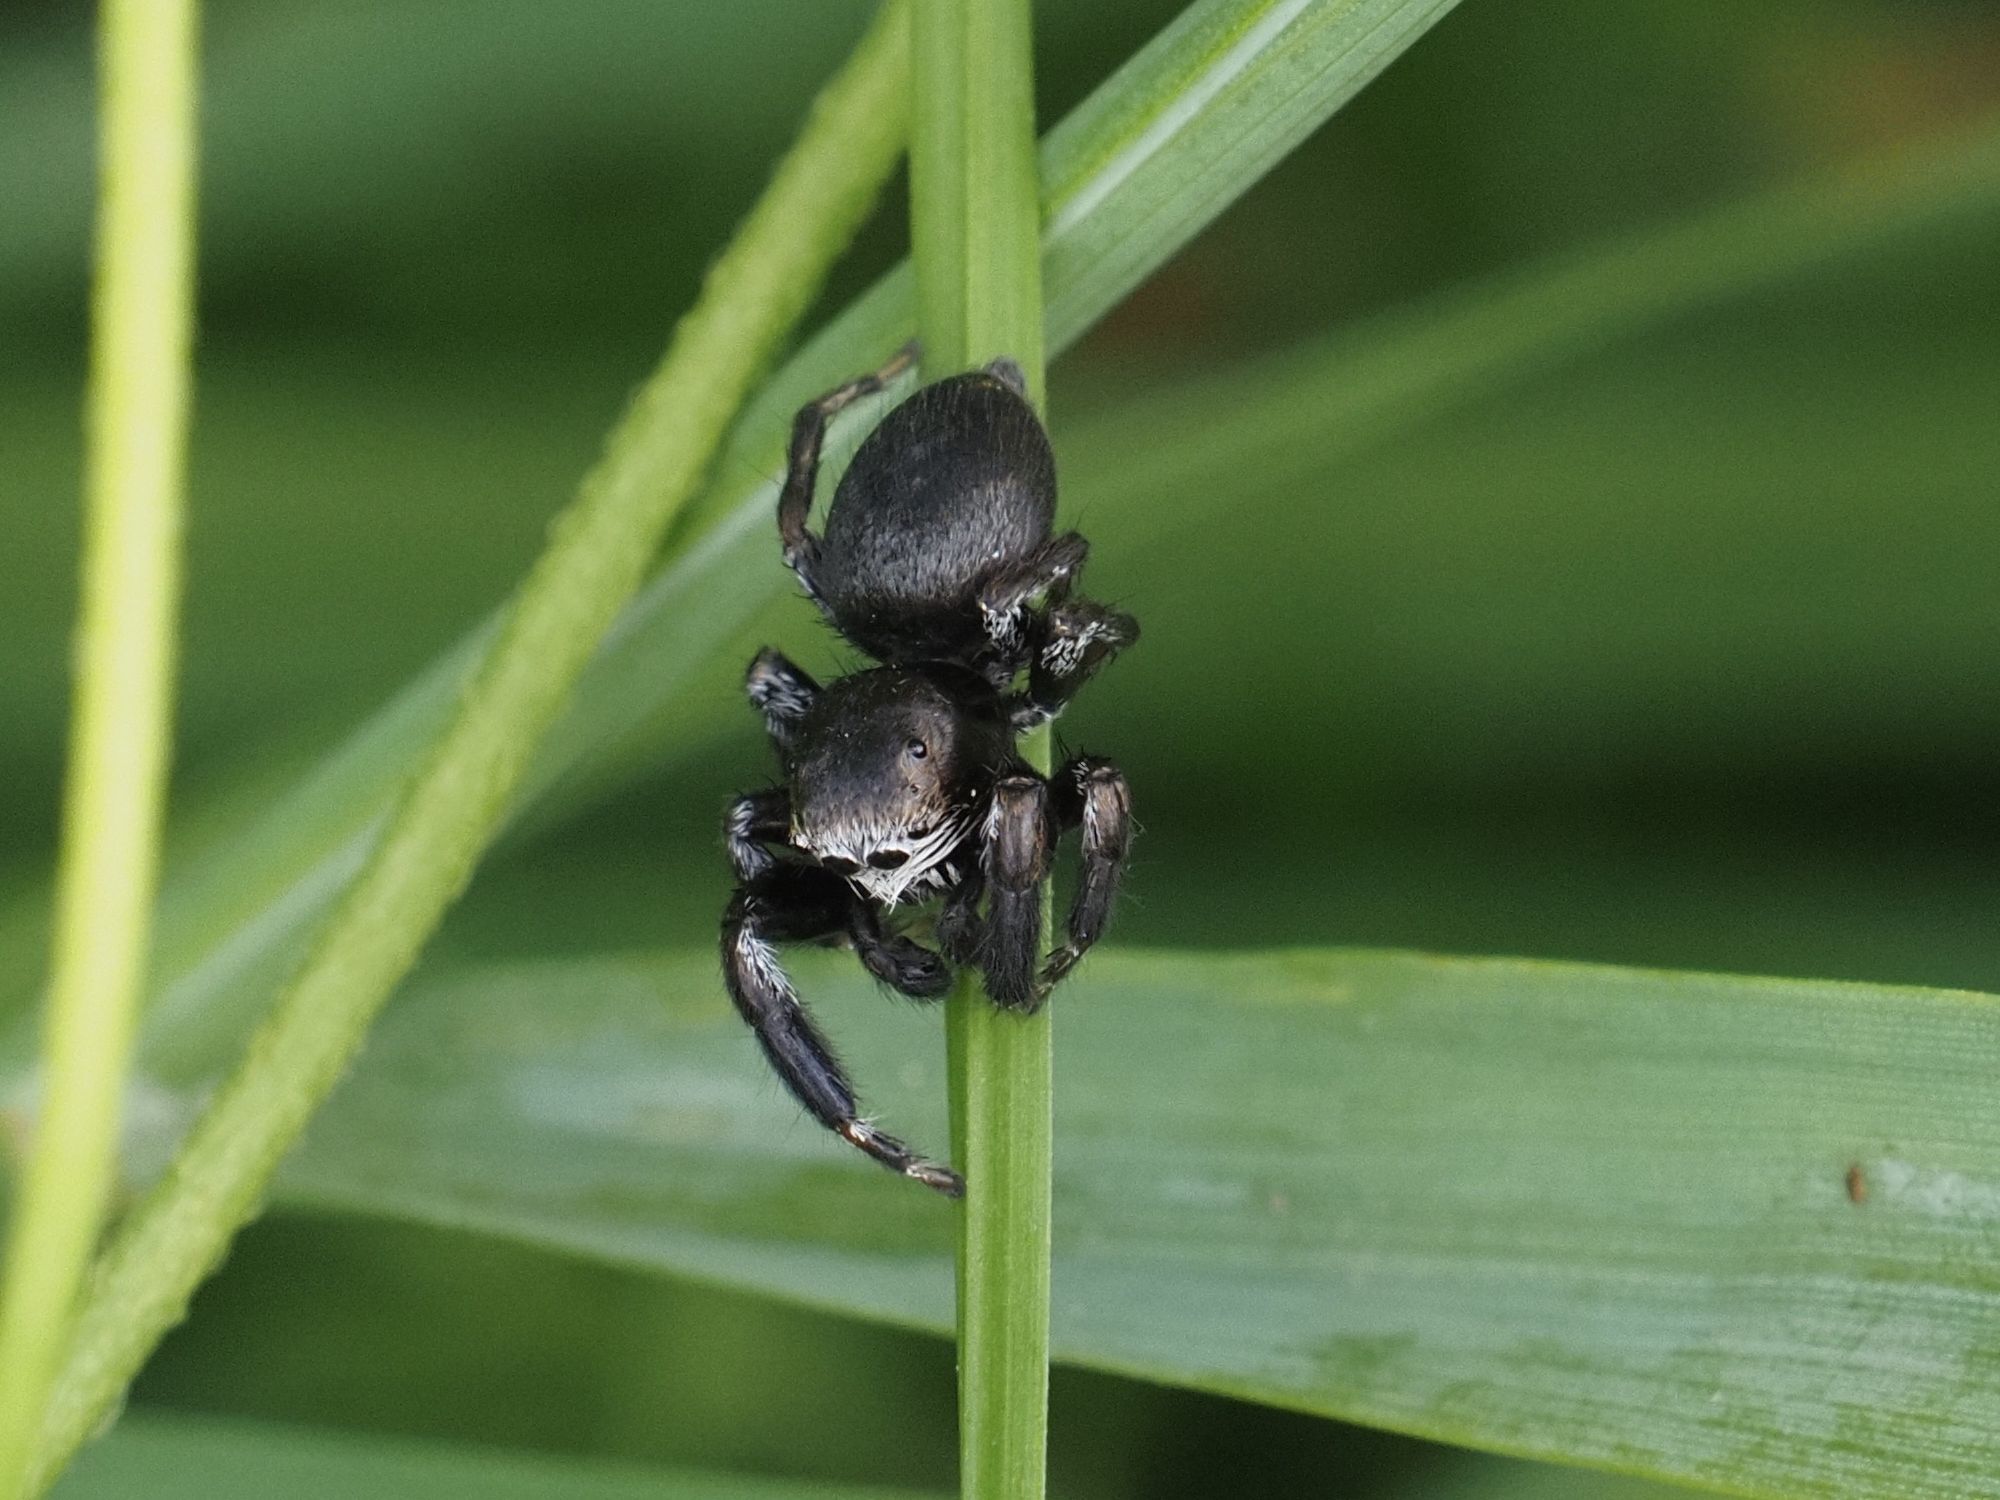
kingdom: Animalia
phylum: Arthropoda
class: Arachnida
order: Araneae
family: Salticidae
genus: Evarcha
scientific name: Evarcha arcuata
